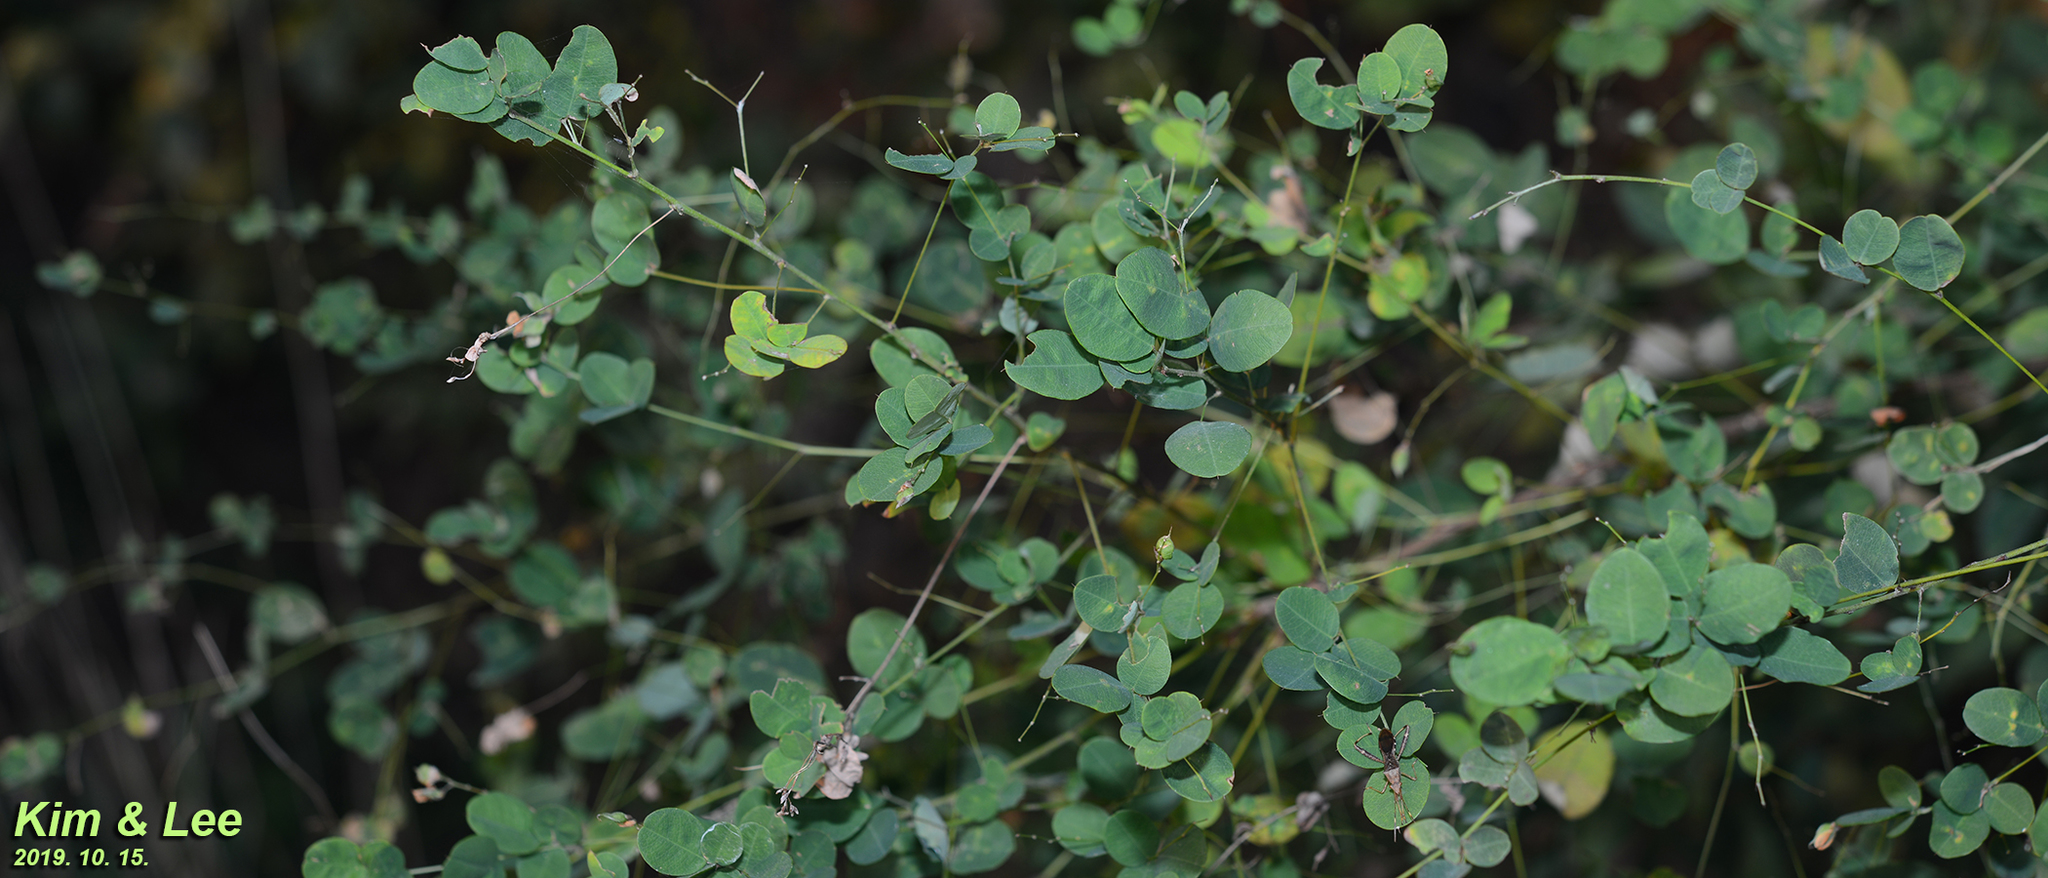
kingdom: Plantae
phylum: Tracheophyta
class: Magnoliopsida
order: Fabales
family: Fabaceae
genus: Lespedeza
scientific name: Lespedeza bicolor
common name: Shrub lespedeza
